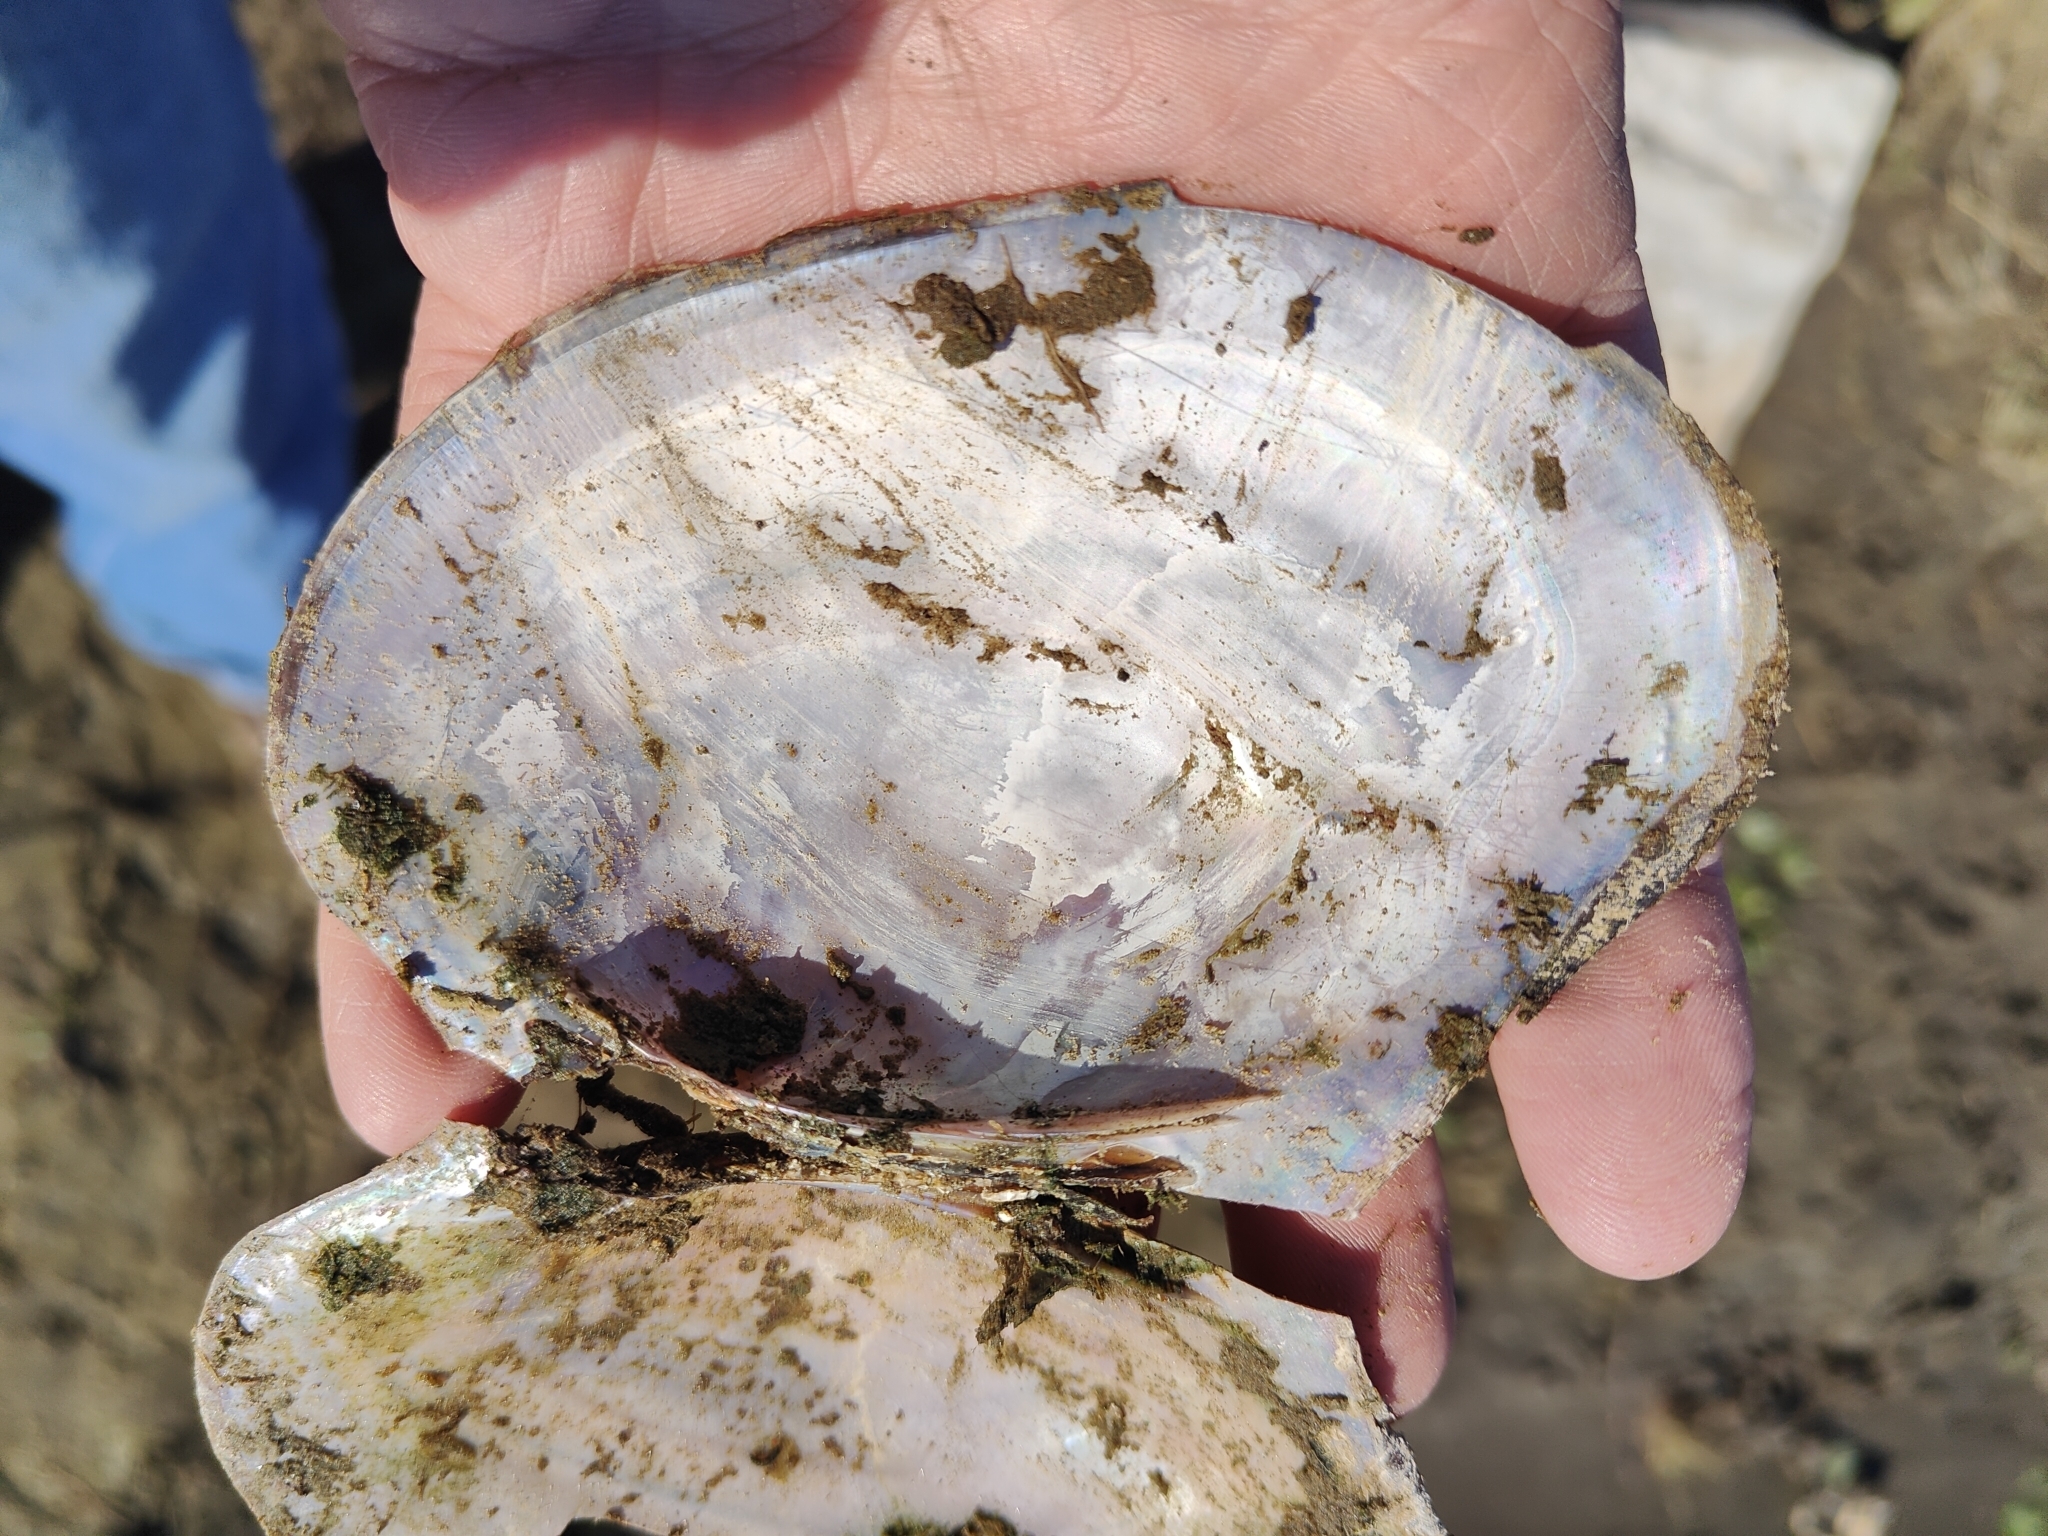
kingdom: Animalia
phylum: Mollusca
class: Bivalvia
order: Unionida
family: Unionidae
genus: Potamilus
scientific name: Potamilus ohiensis
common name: Pink papershell
